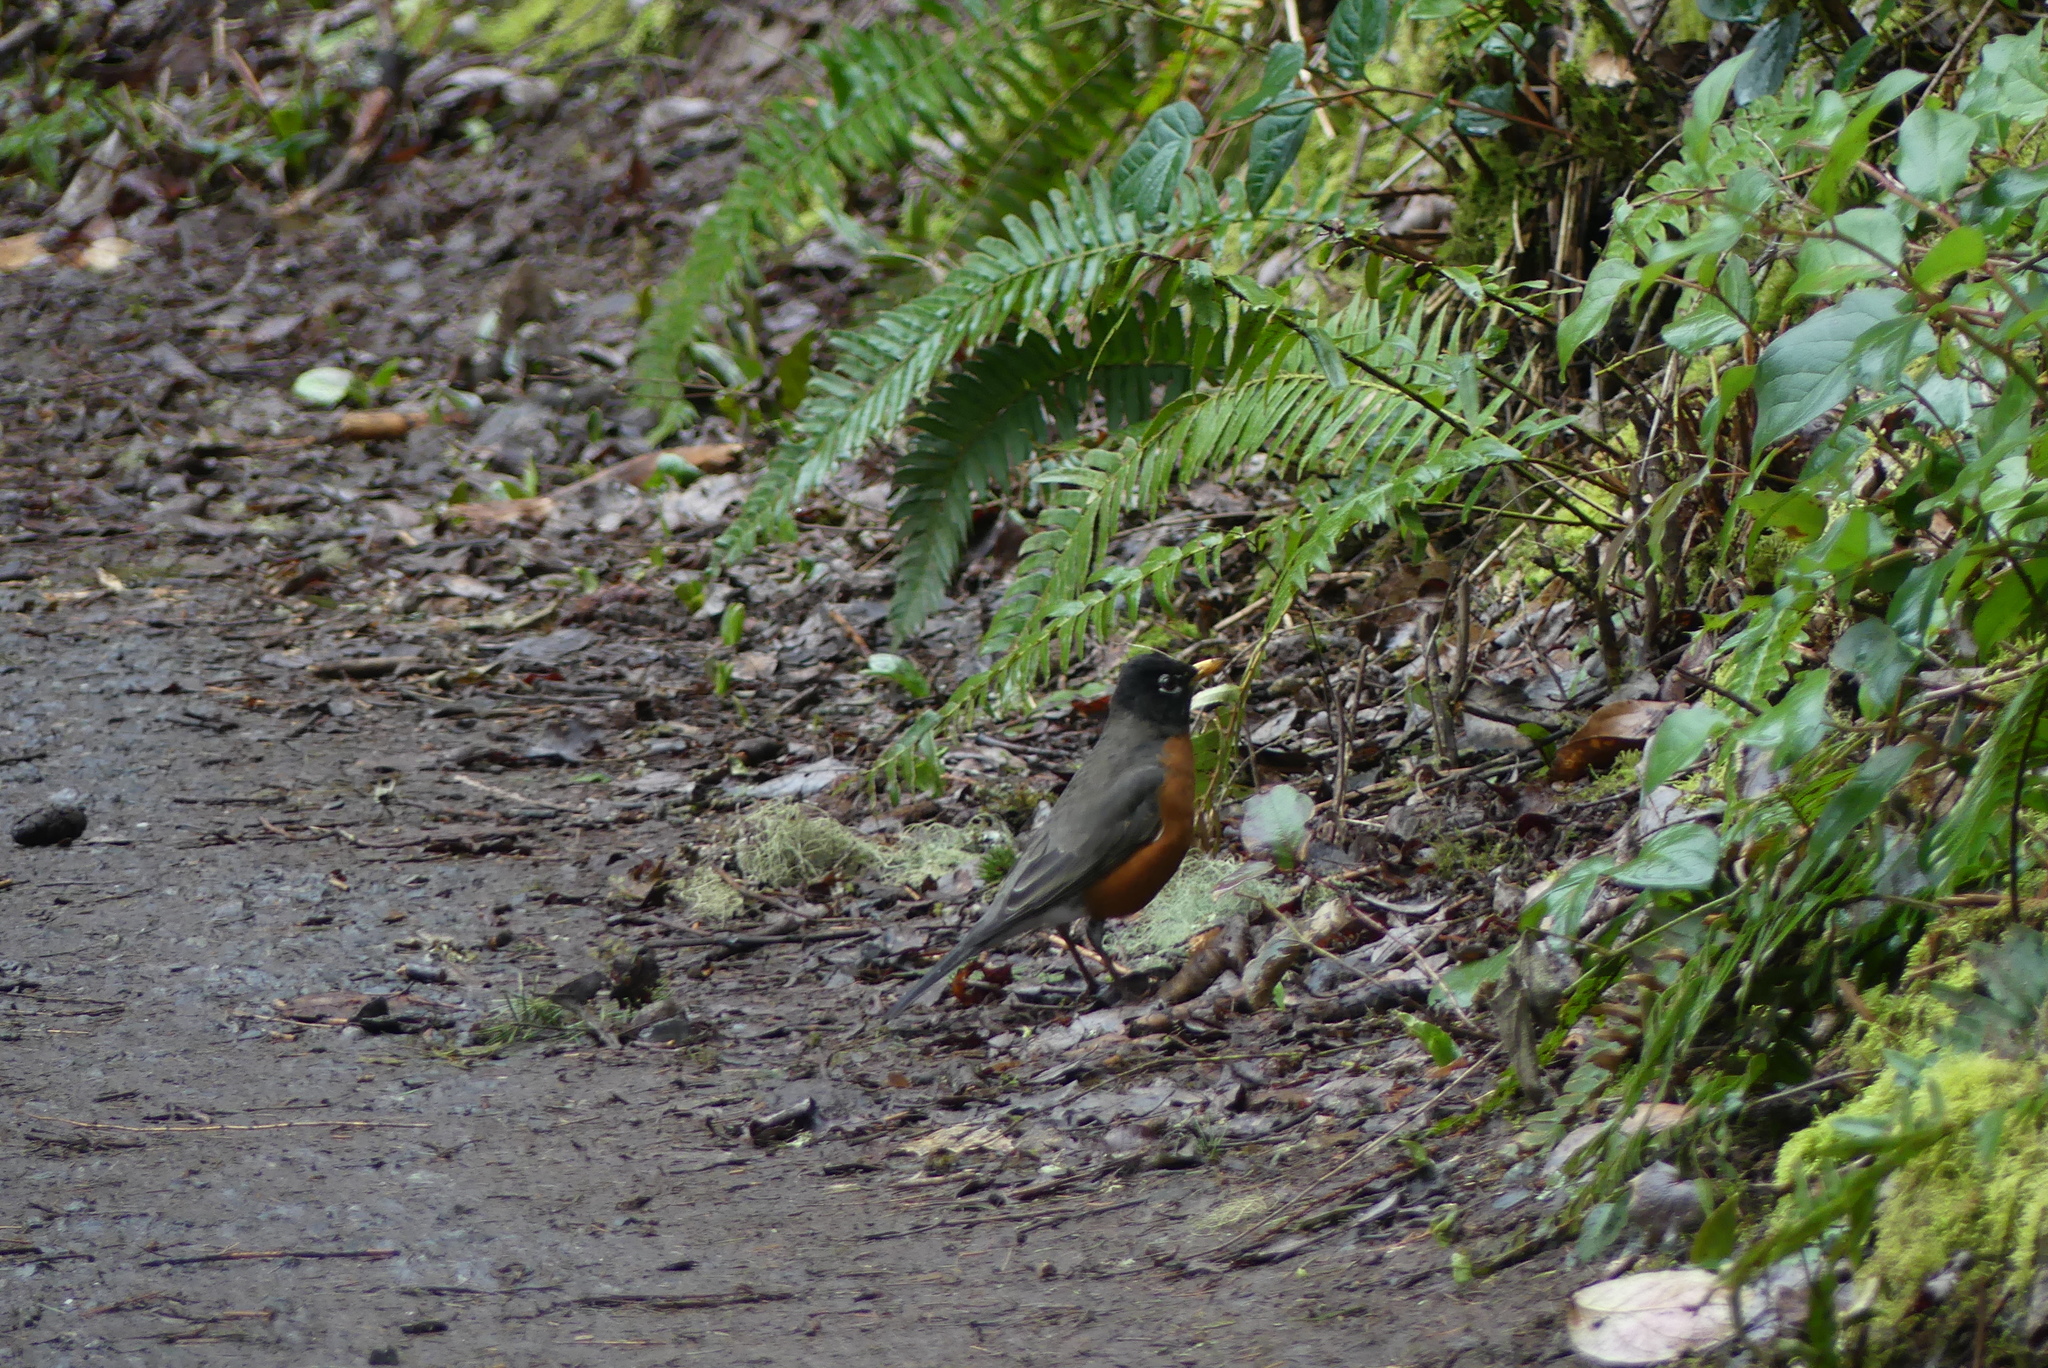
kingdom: Animalia
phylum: Chordata
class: Aves
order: Passeriformes
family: Turdidae
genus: Turdus
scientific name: Turdus migratorius
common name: American robin
